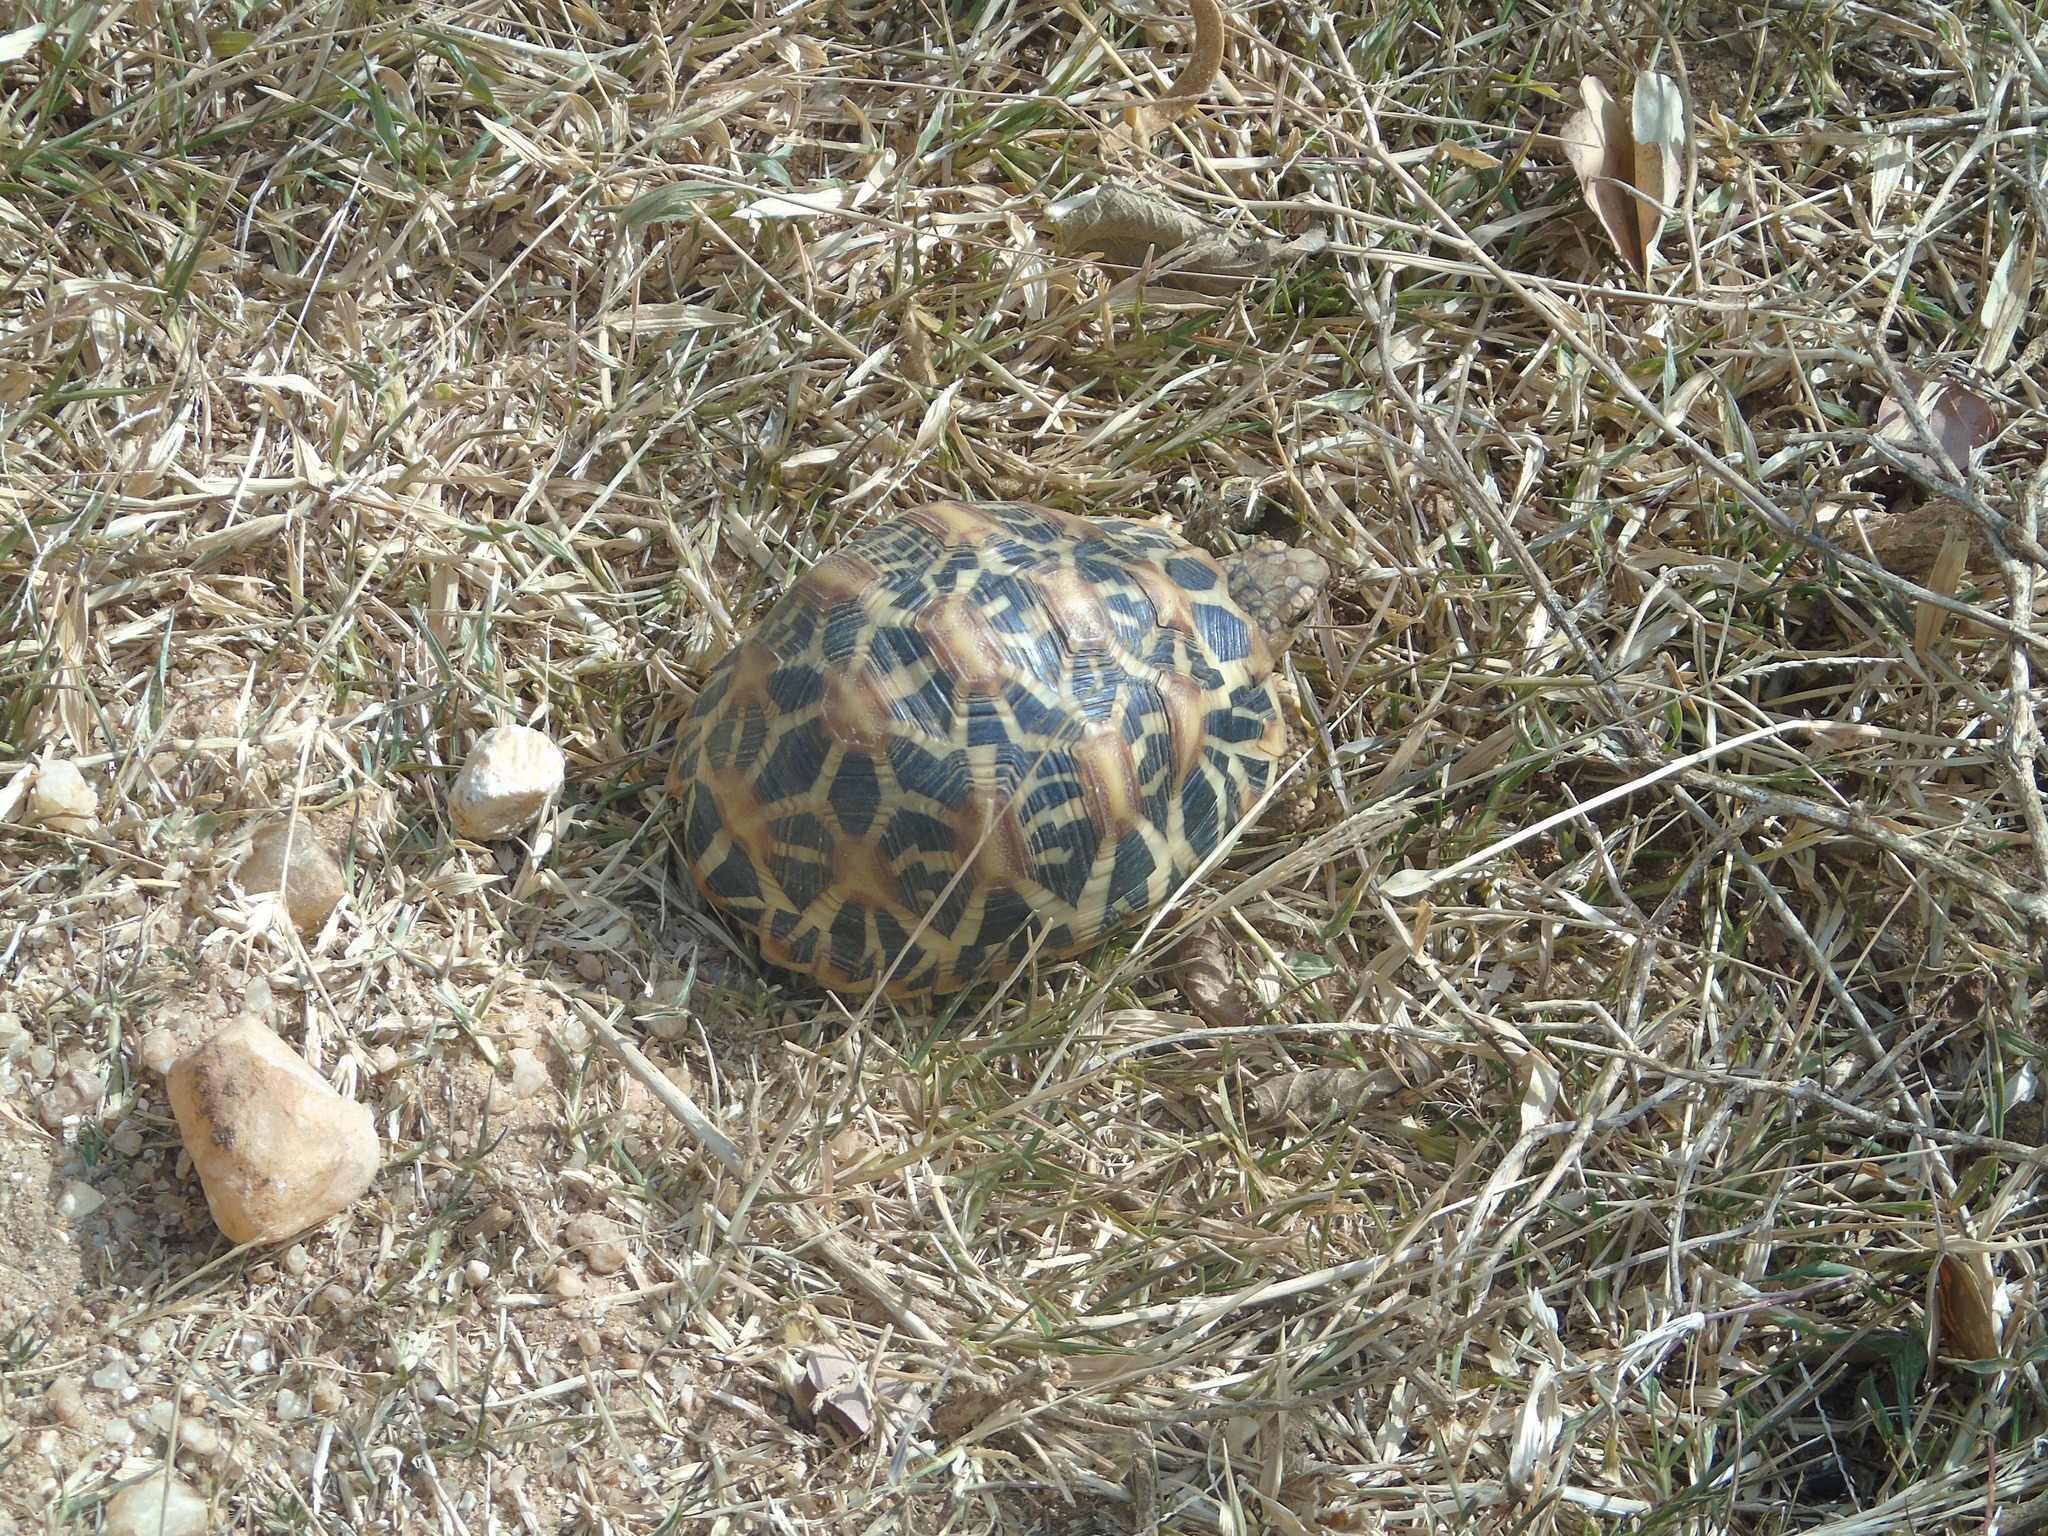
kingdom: Animalia
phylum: Chordata
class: Testudines
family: Testudinidae
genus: Geochelone
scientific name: Geochelone elegans
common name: Indian star tortoise
